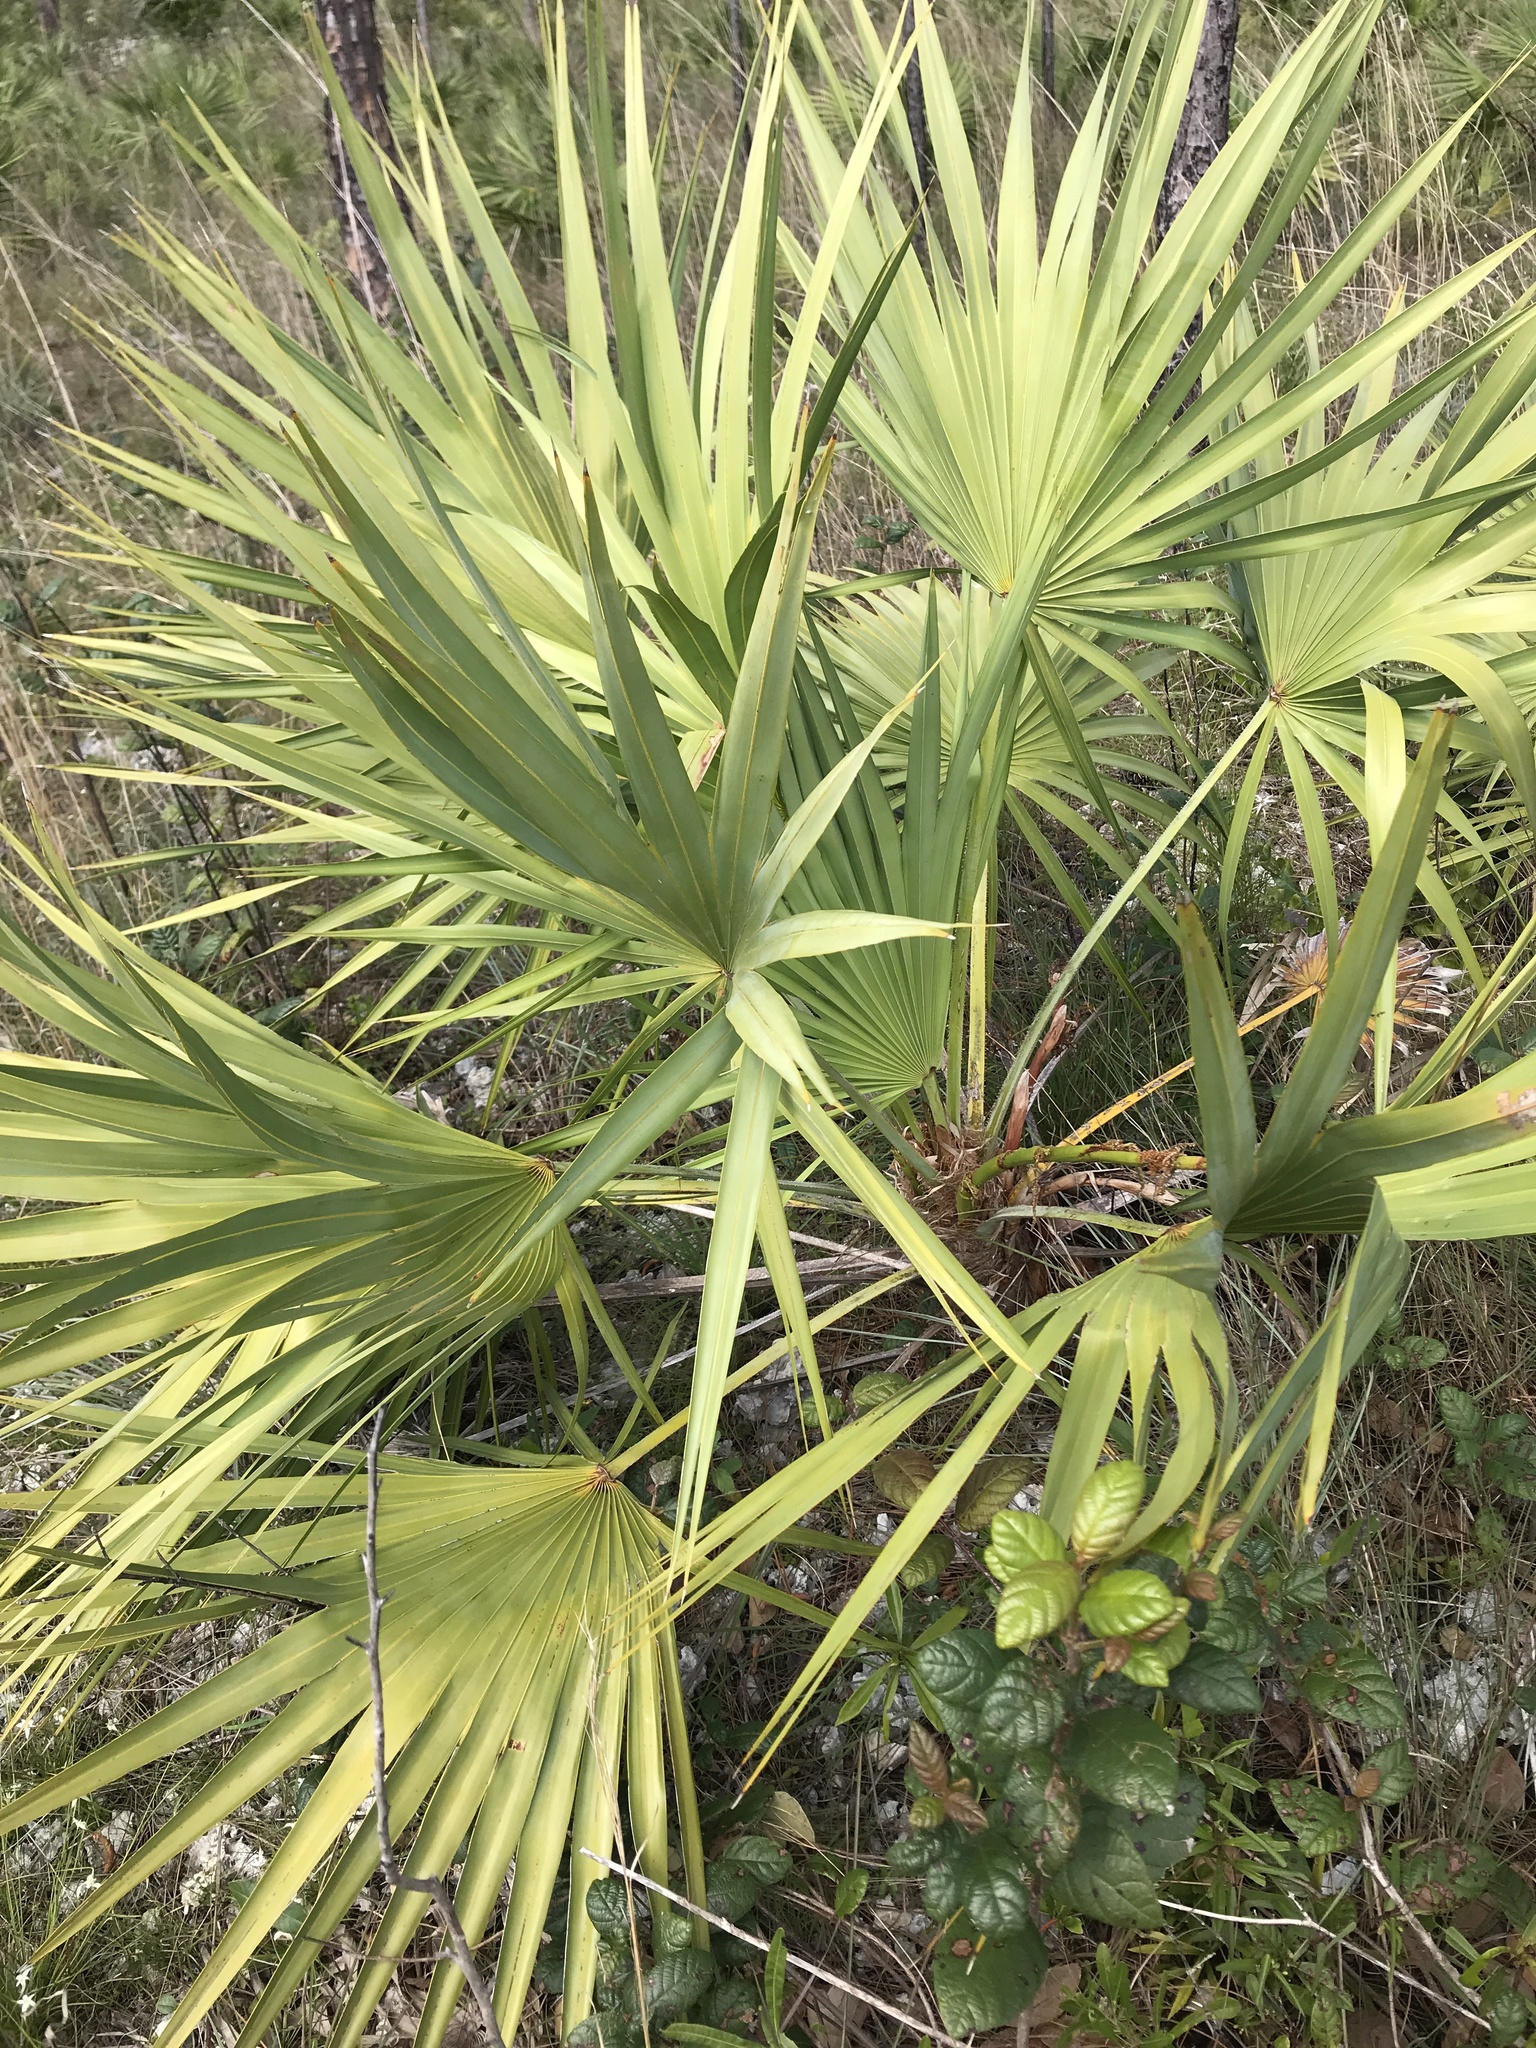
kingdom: Plantae
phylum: Tracheophyta
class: Liliopsida
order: Arecales
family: Arecaceae
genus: Serenoa
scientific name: Serenoa repens
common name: Saw-palmetto
